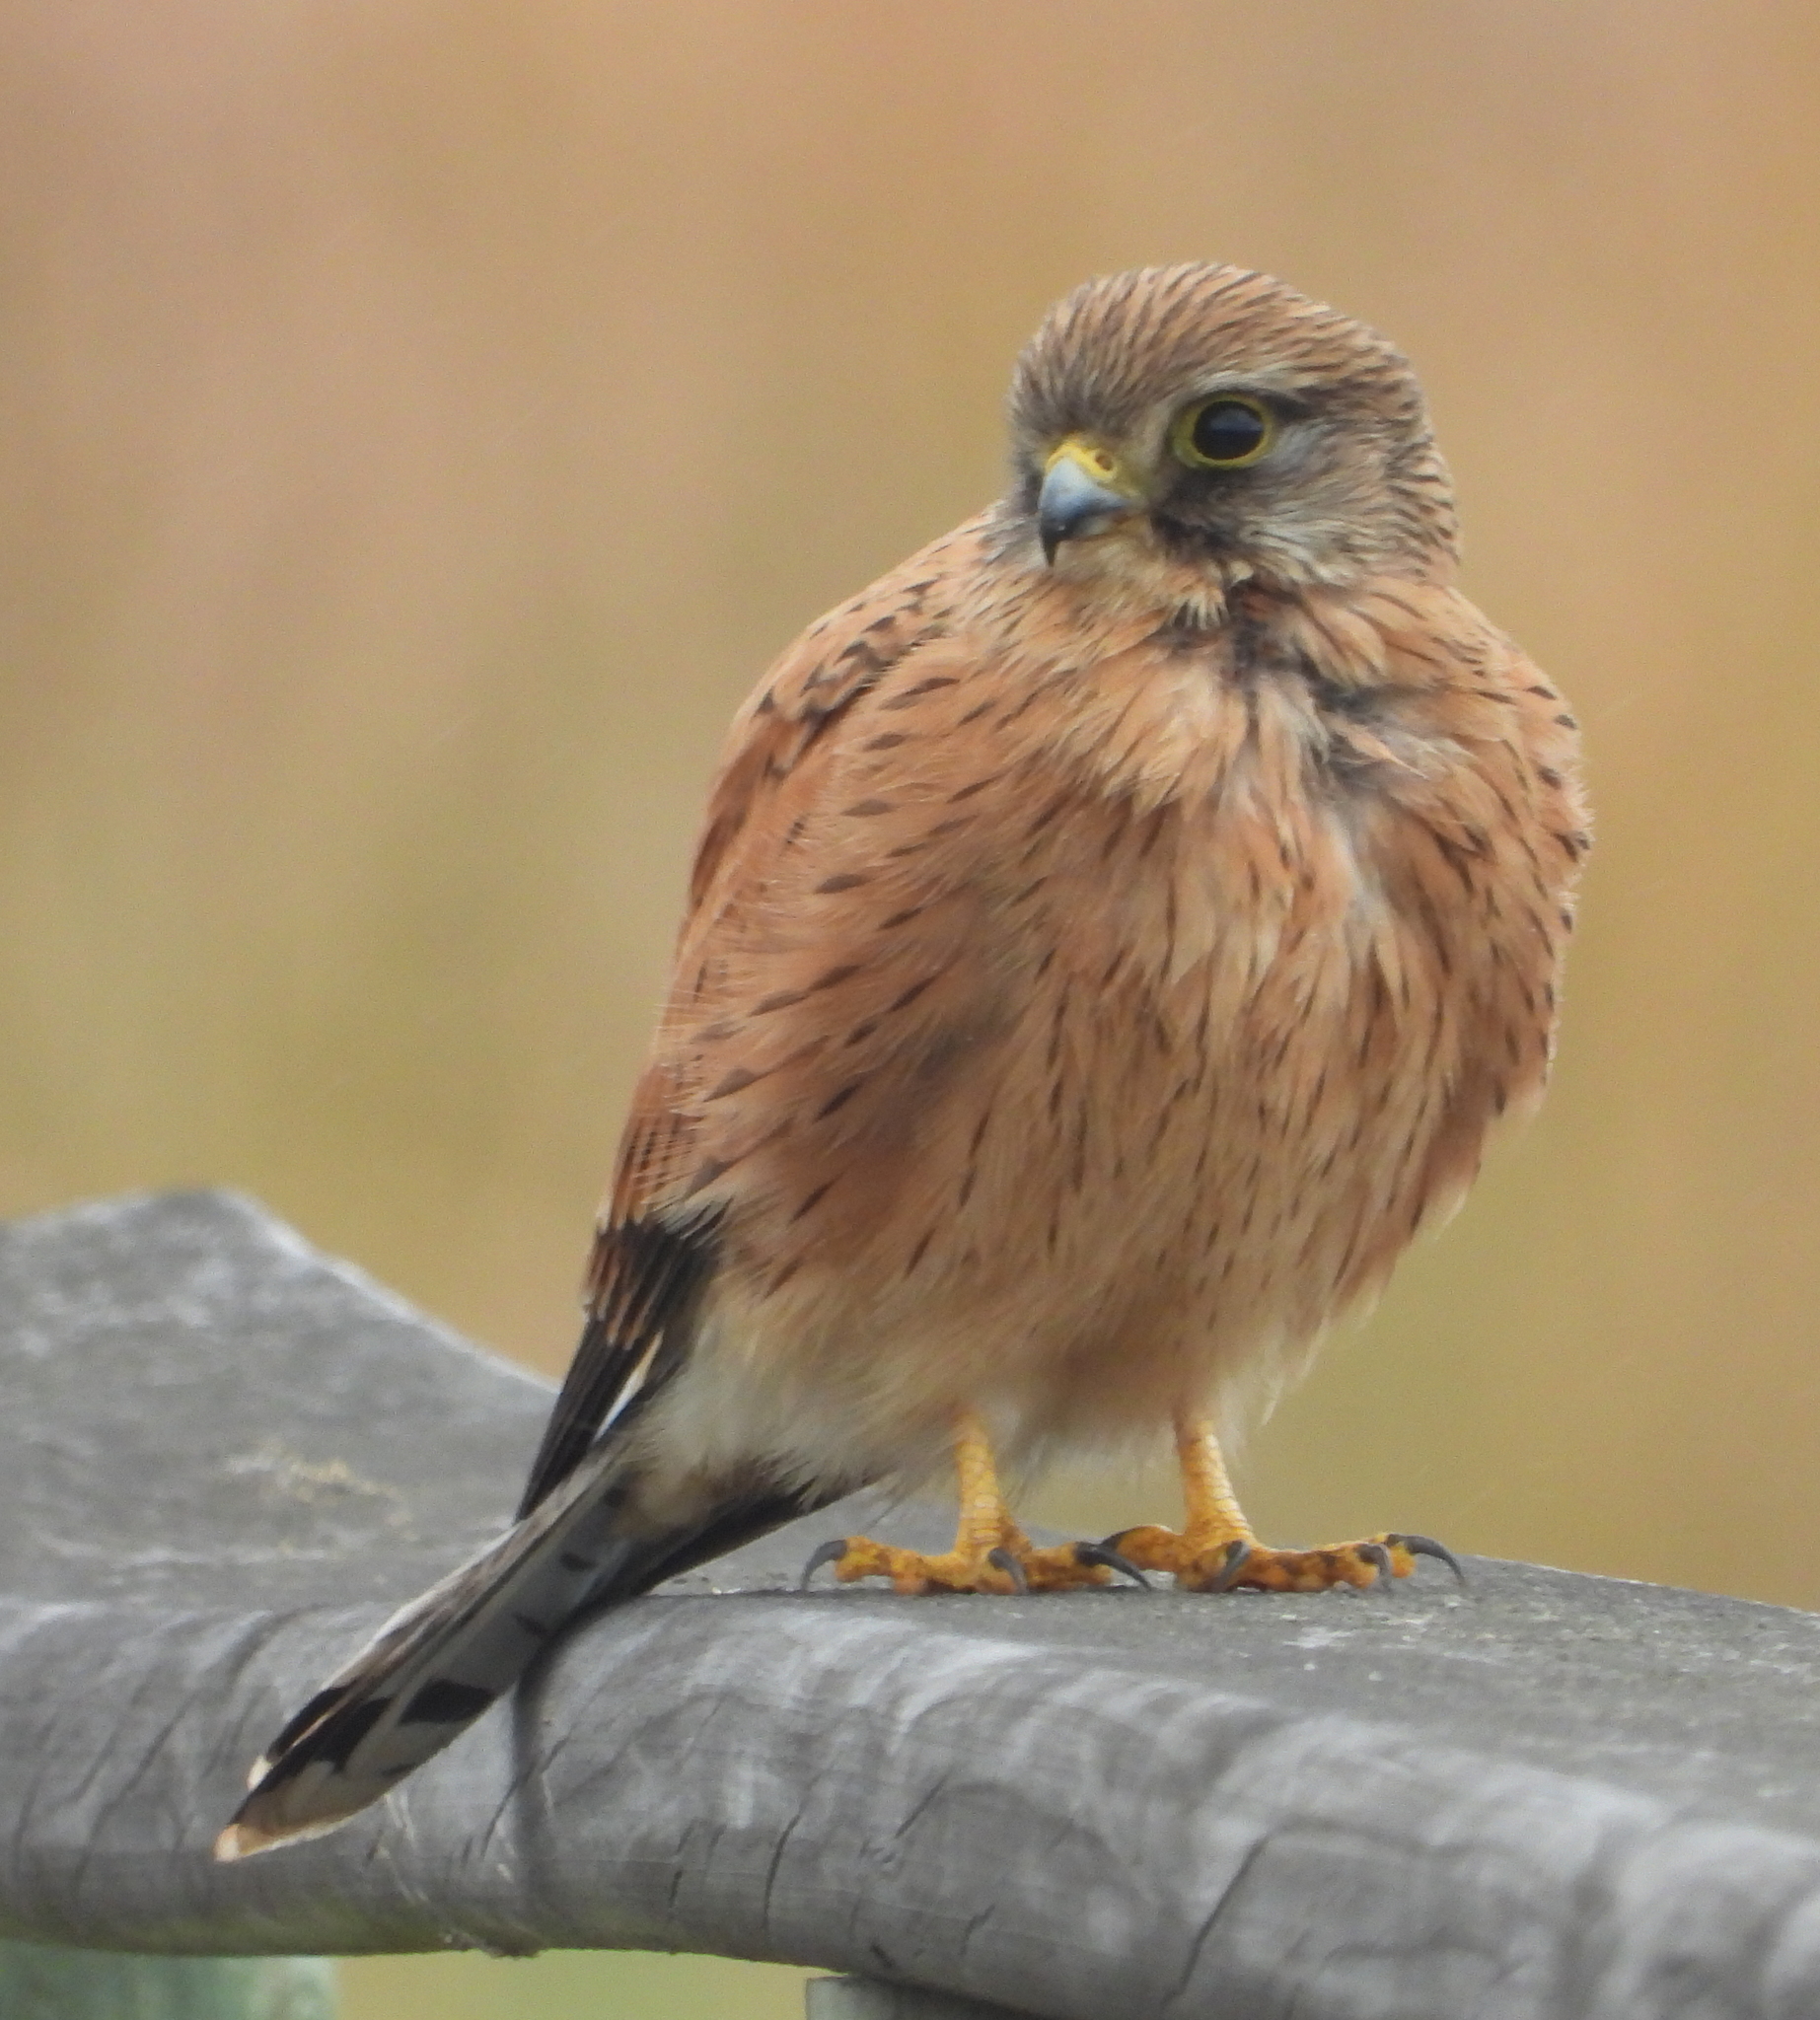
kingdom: Animalia
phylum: Chordata
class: Aves
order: Falconiformes
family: Falconidae
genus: Falco
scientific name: Falco rupicolus
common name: Rock kestrel
